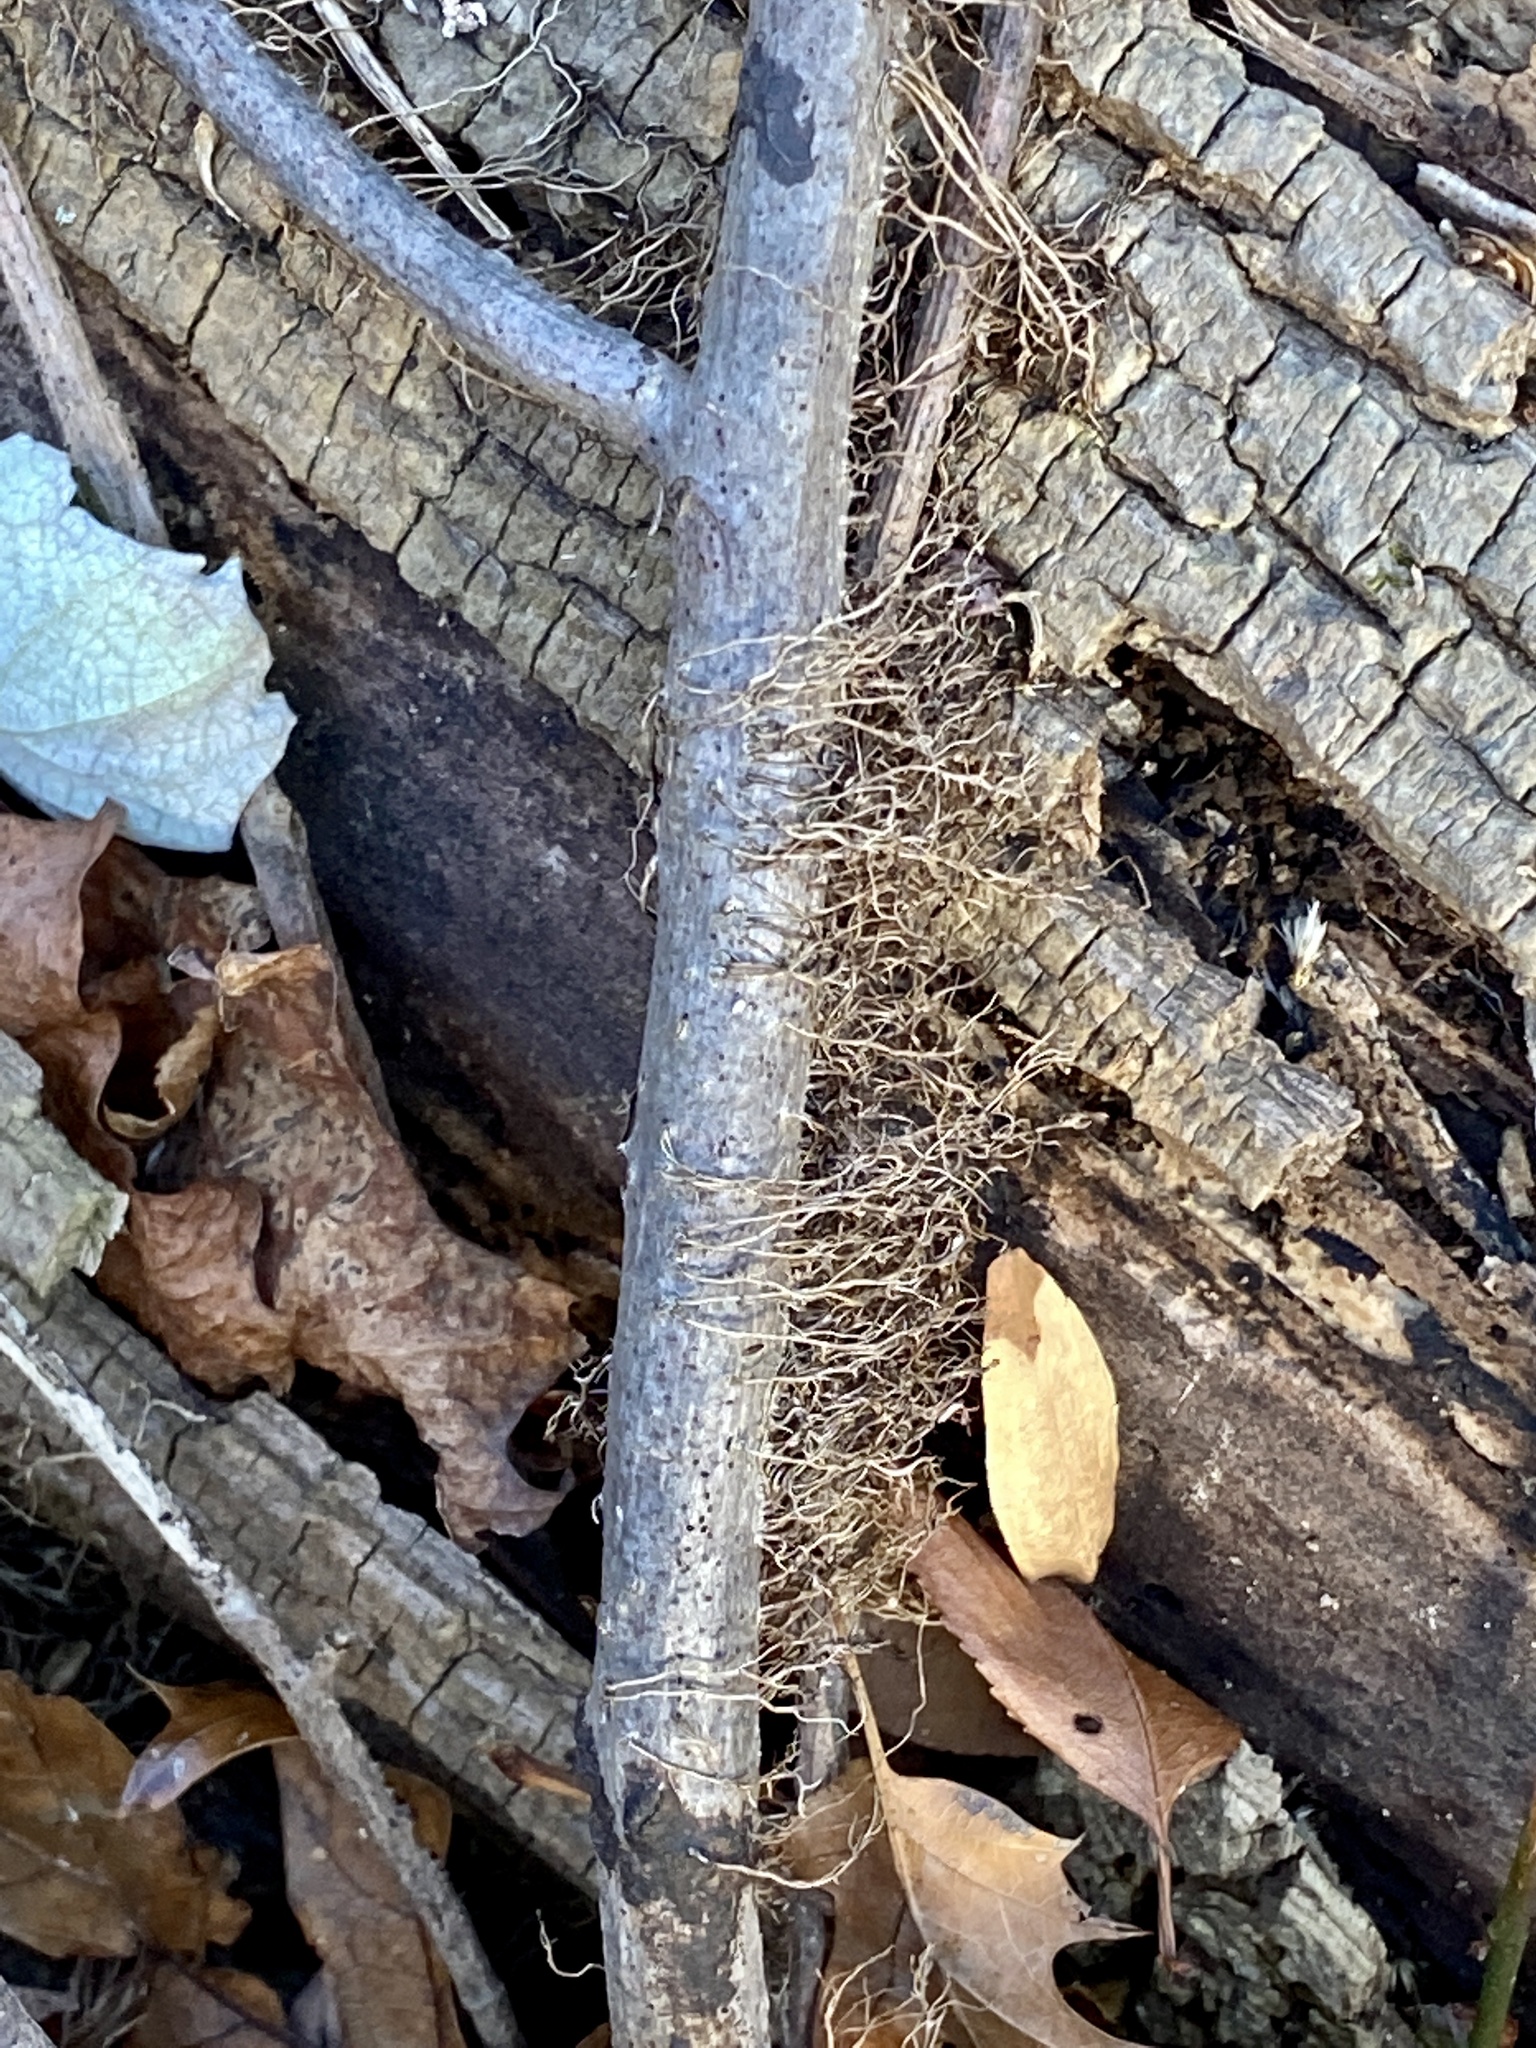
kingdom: Plantae
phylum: Tracheophyta
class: Magnoliopsida
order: Sapindales
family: Anacardiaceae
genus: Toxicodendron
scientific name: Toxicodendron radicans
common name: Poison ivy
